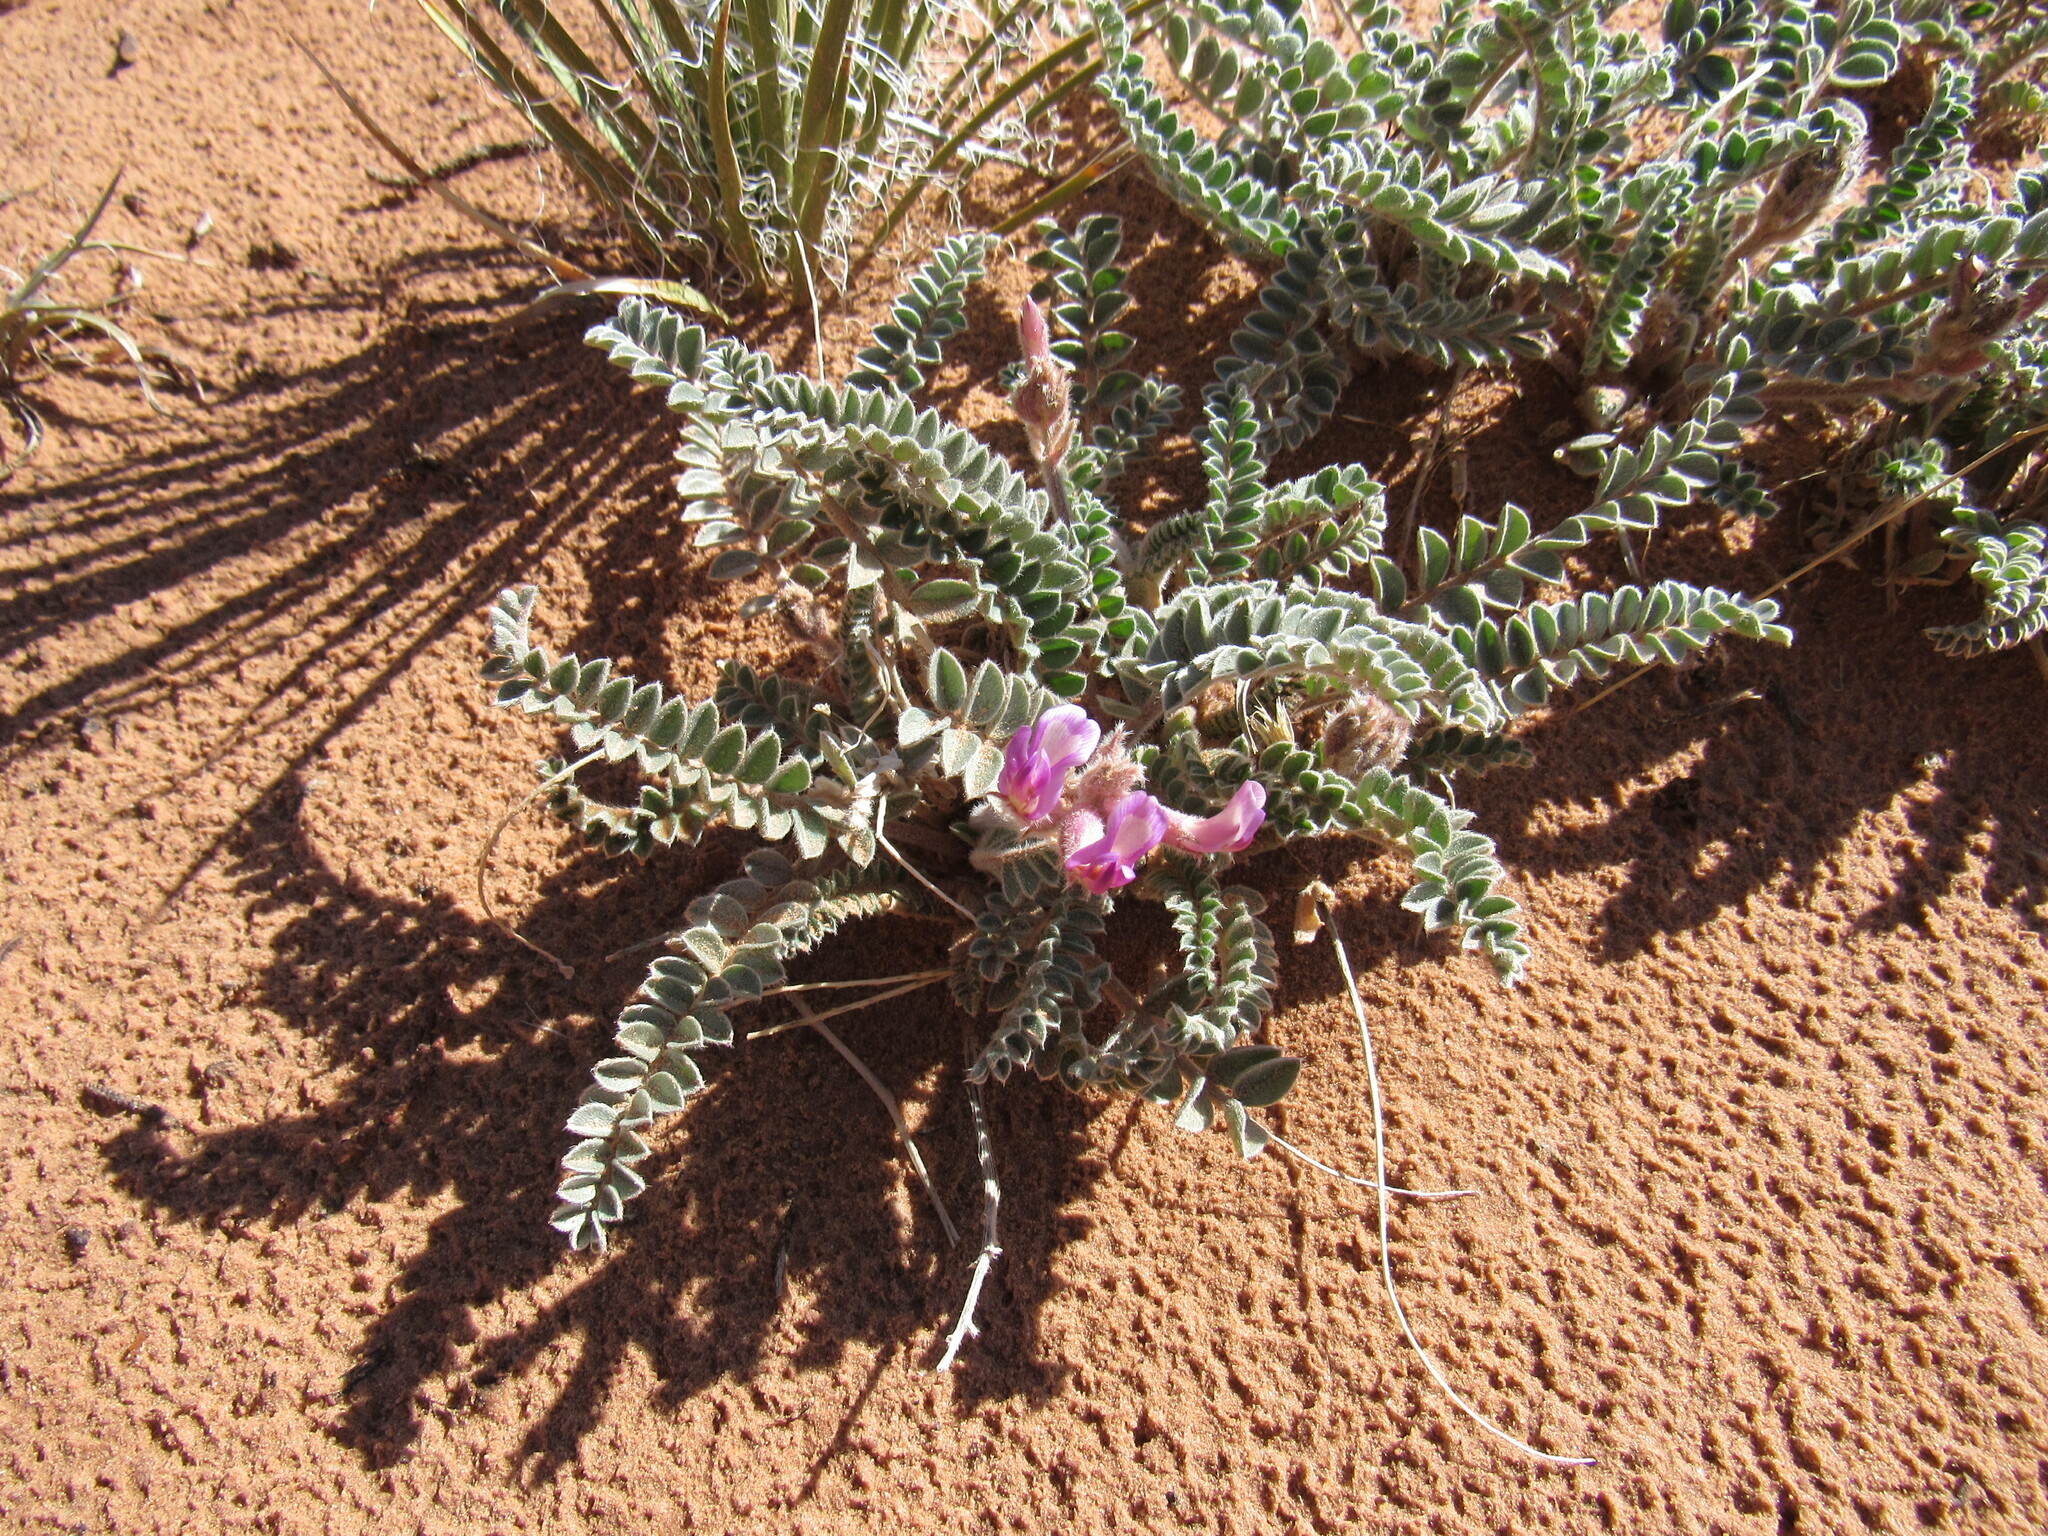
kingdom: Plantae
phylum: Tracheophyta
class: Magnoliopsida
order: Fabales
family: Fabaceae
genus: Astragalus
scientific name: Astragalus mollissimus
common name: Woolly locoweed
